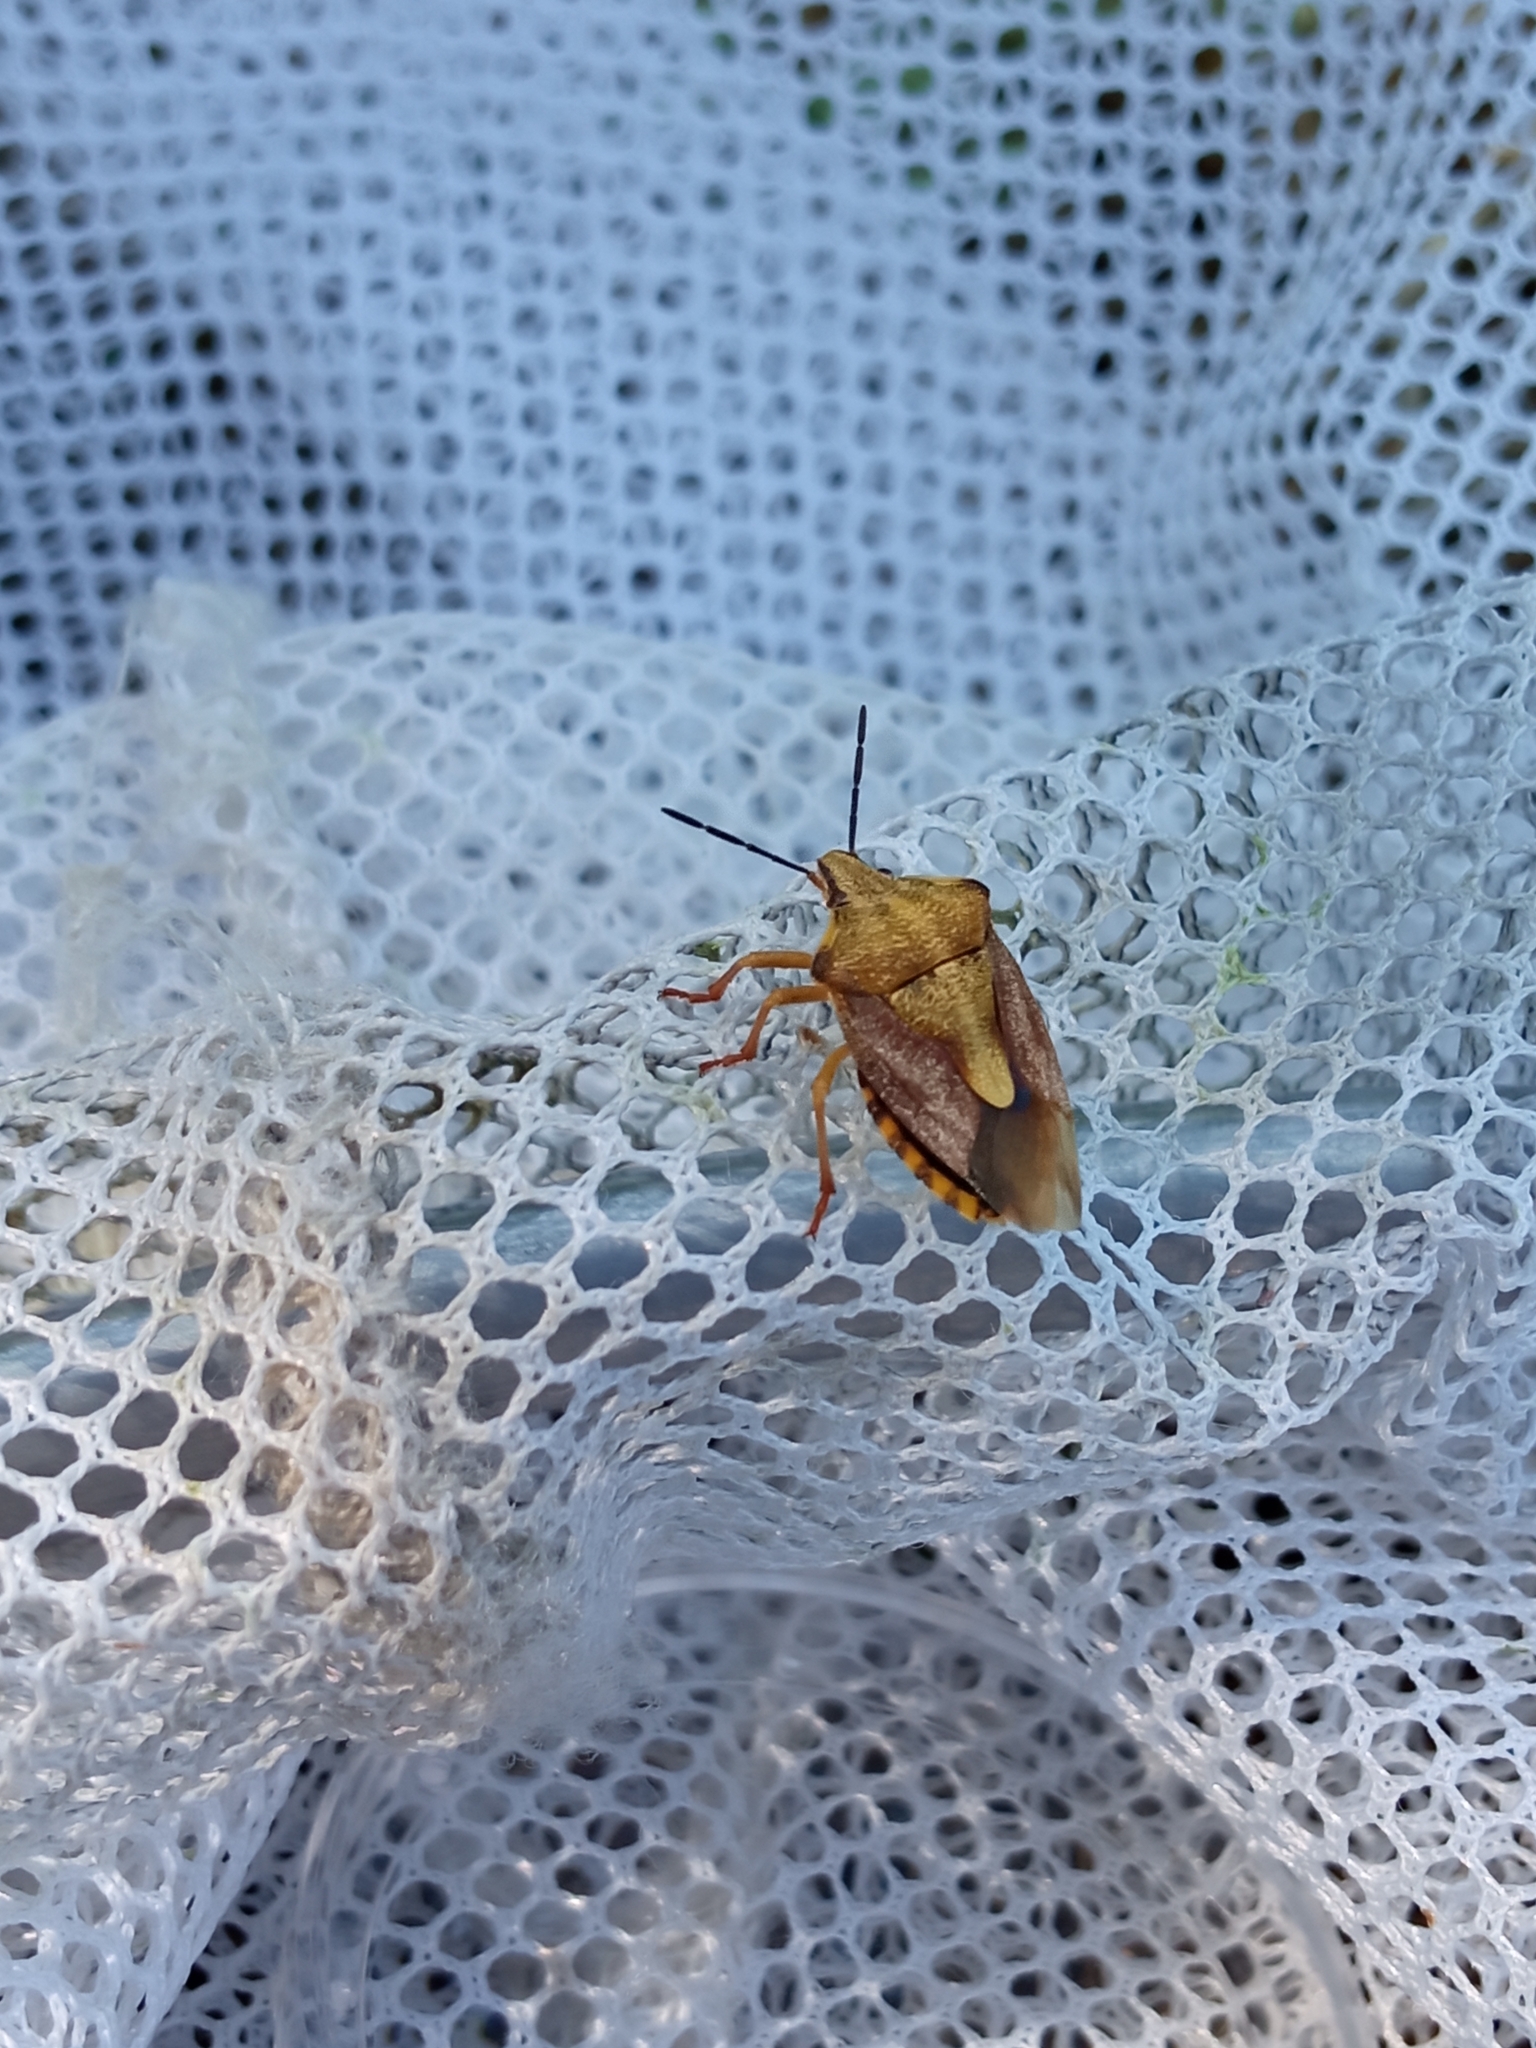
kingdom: Animalia
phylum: Arthropoda
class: Insecta
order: Hemiptera
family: Pentatomidae
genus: Carpocoris
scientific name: Carpocoris purpureipennis
